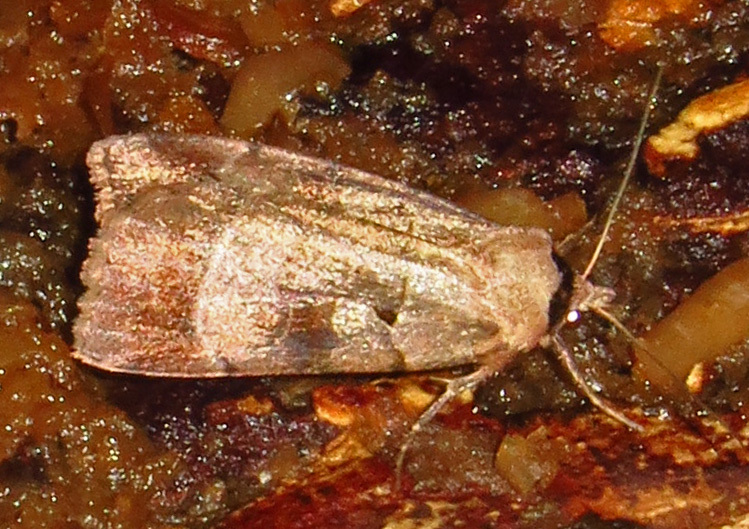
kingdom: Animalia
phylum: Arthropoda
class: Insecta
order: Lepidoptera
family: Noctuidae
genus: Agnorisma
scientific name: Agnorisma badinodis
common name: Pale-banded dart
